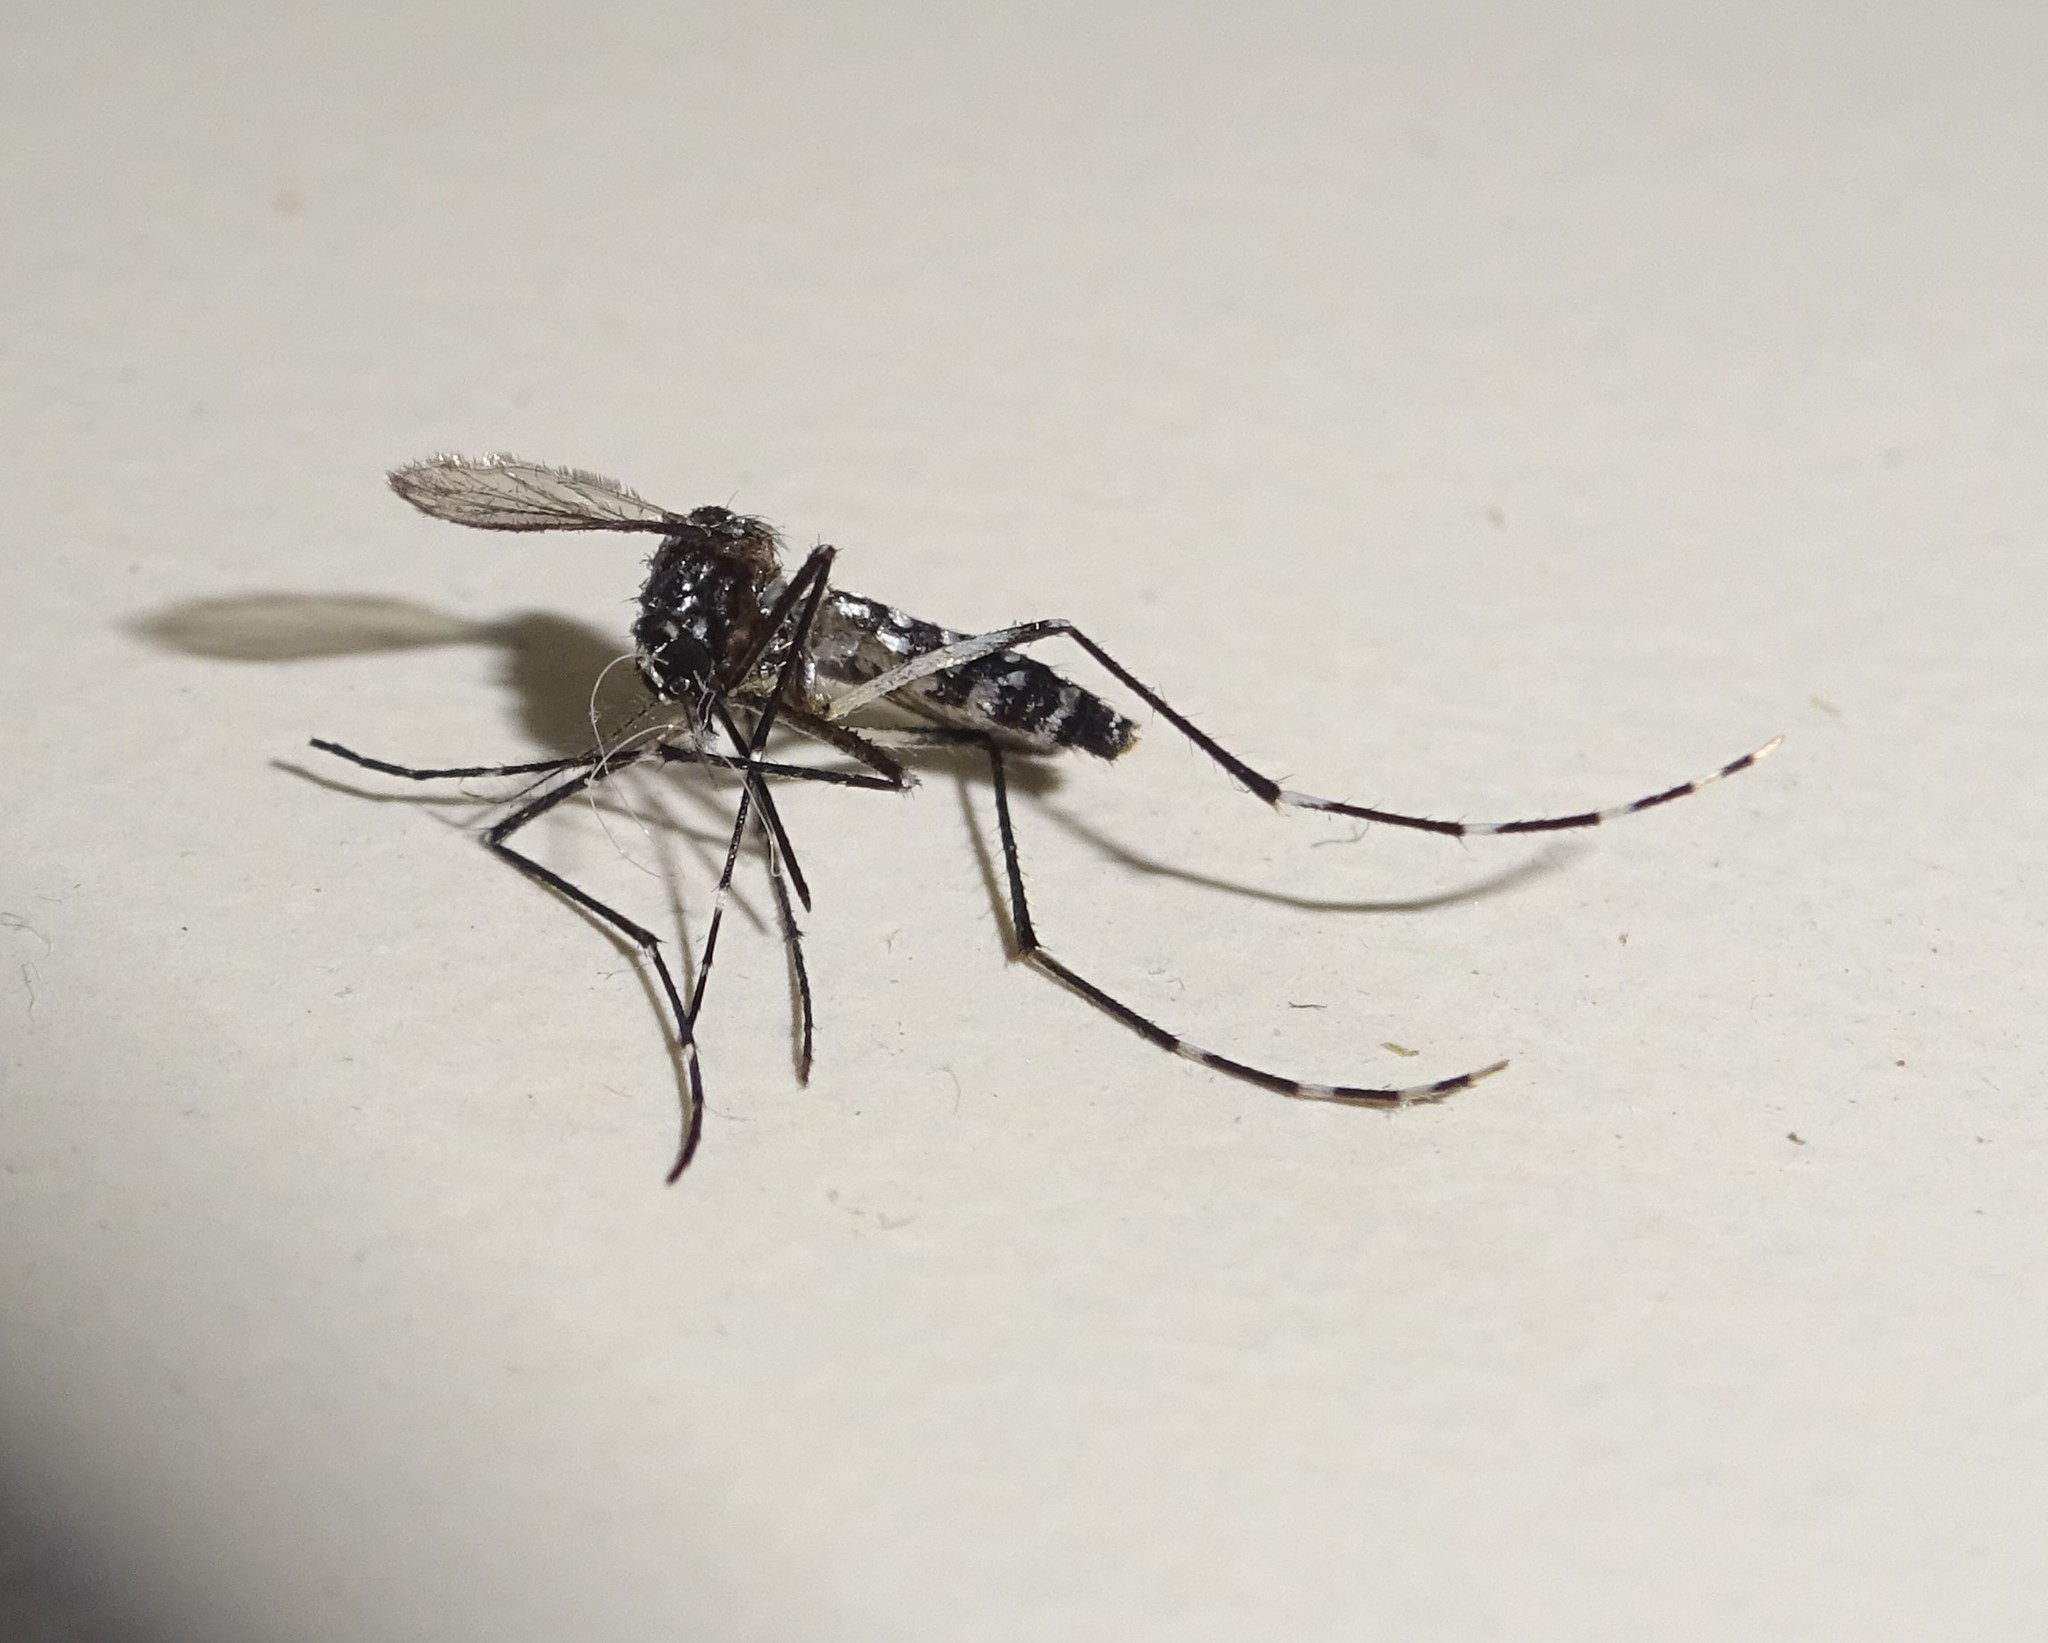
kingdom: Animalia
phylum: Arthropoda
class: Insecta
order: Diptera
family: Culicidae
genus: Aedes
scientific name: Aedes albopictus
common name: Tiger mosquito
